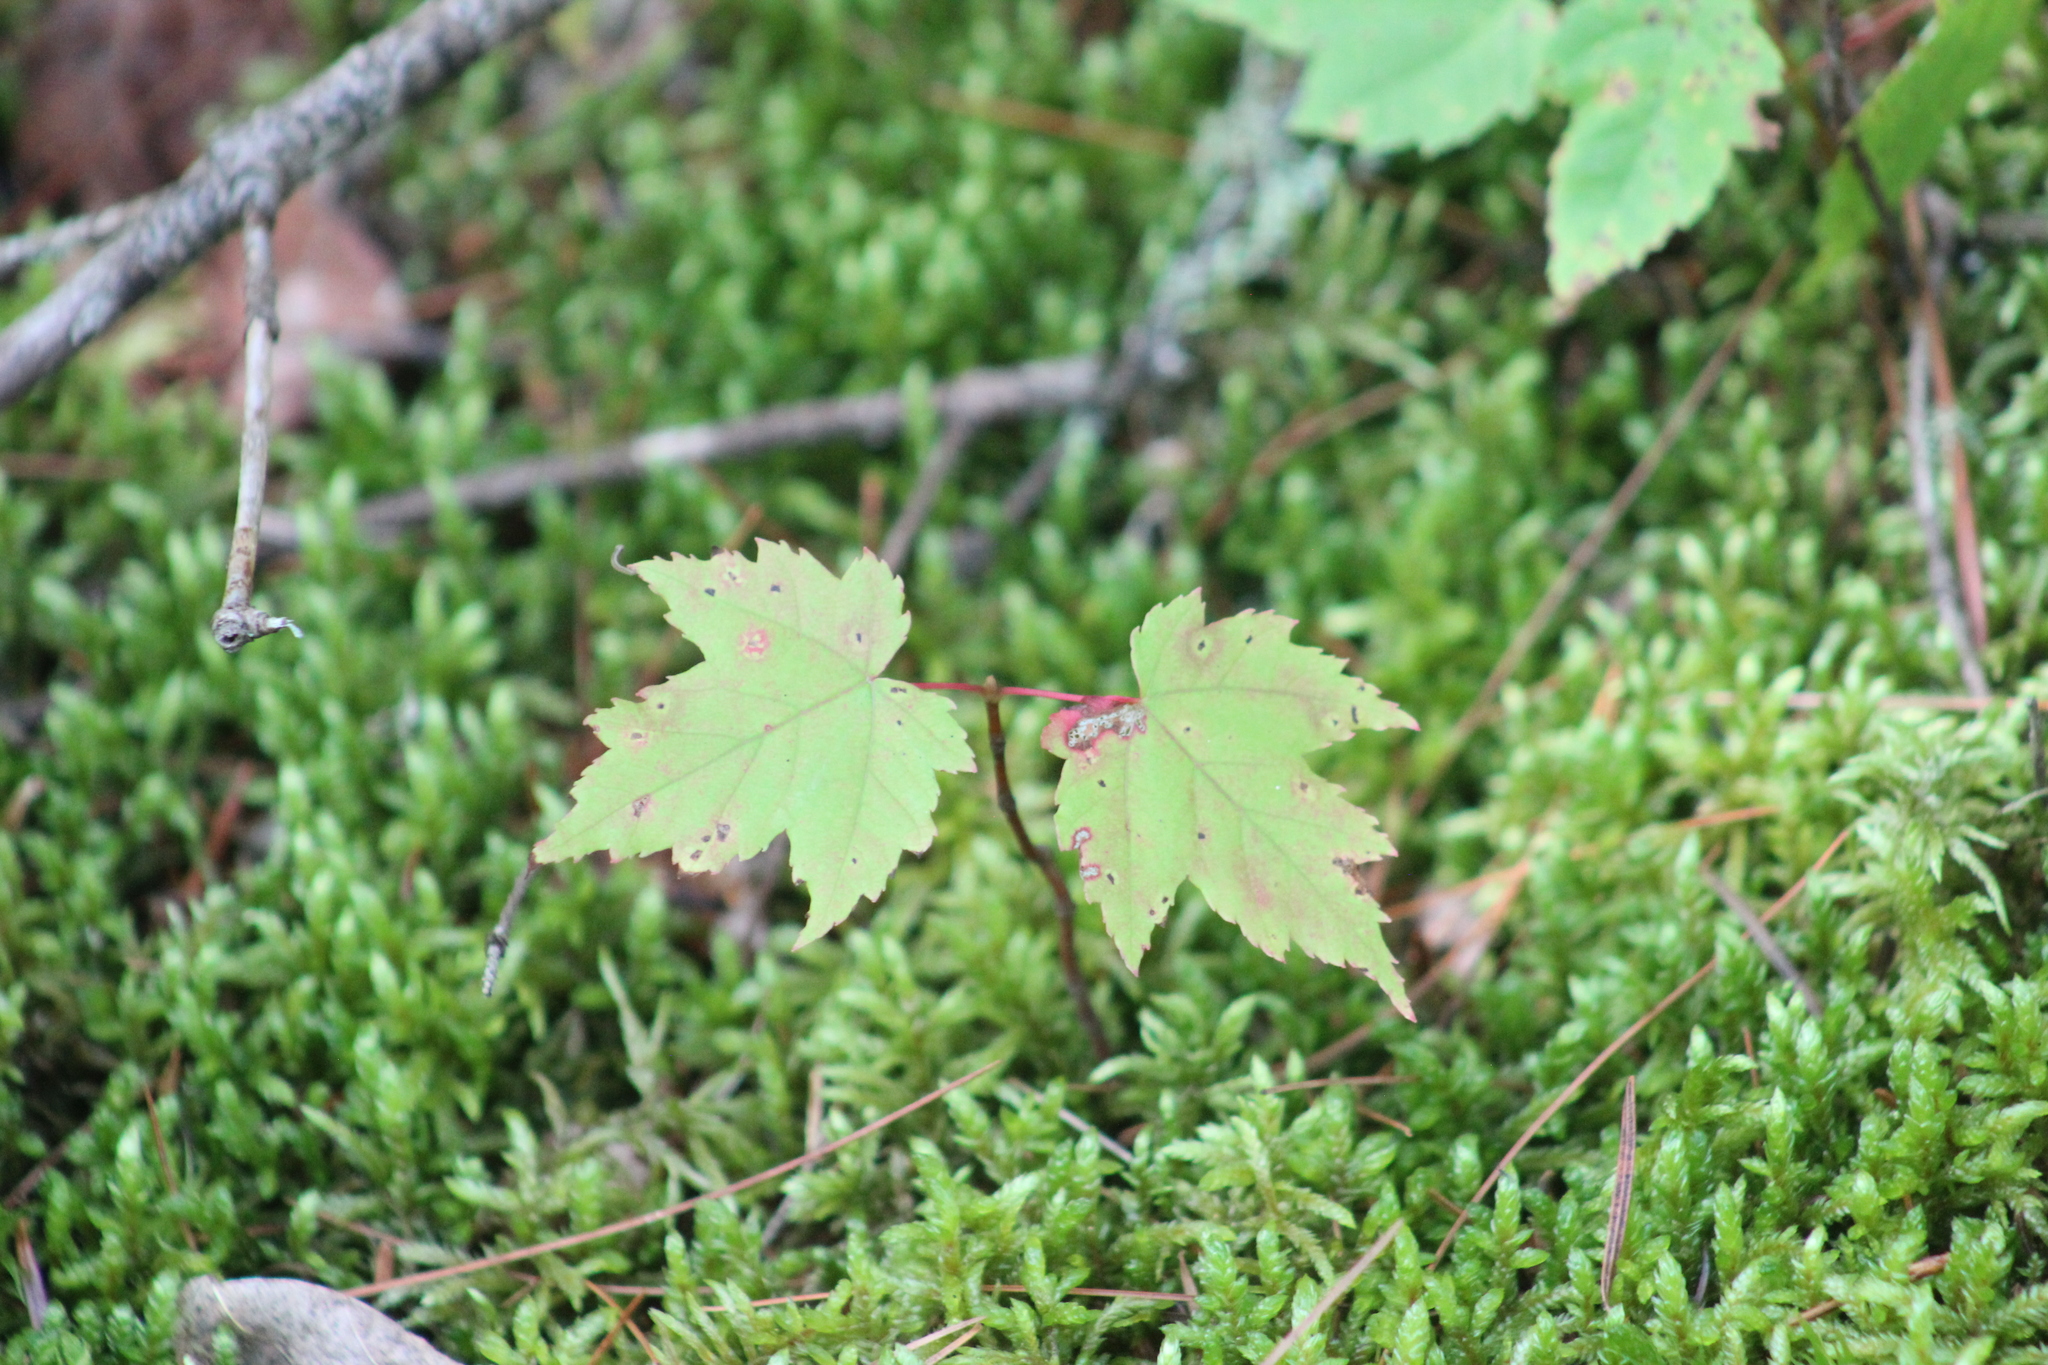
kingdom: Plantae
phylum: Tracheophyta
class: Magnoliopsida
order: Sapindales
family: Sapindaceae
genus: Acer
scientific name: Acer rubrum
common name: Red maple
